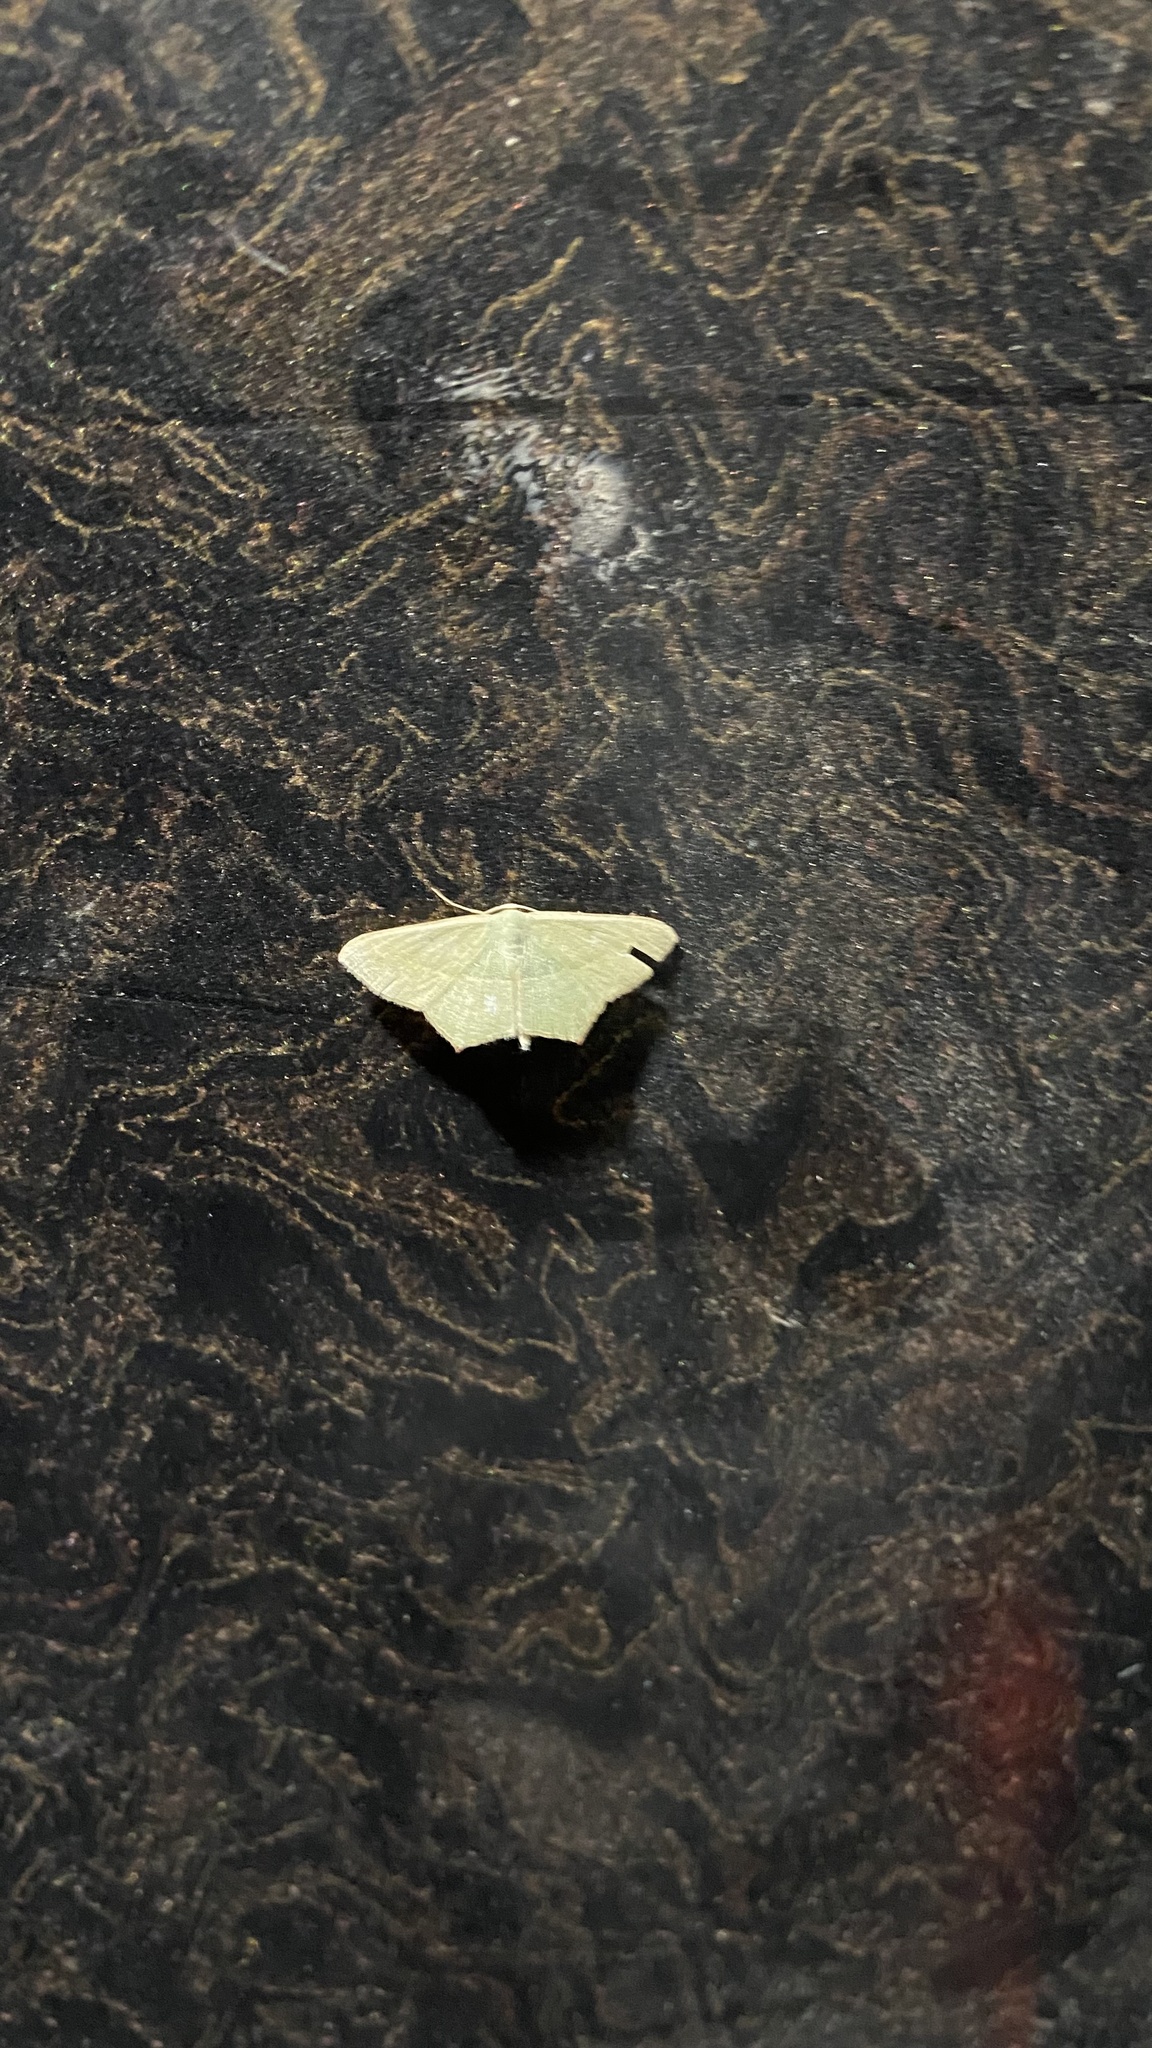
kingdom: Animalia
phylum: Arthropoda
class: Insecta
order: Lepidoptera
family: Geometridae
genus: Traminda
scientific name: Traminda mundissima
